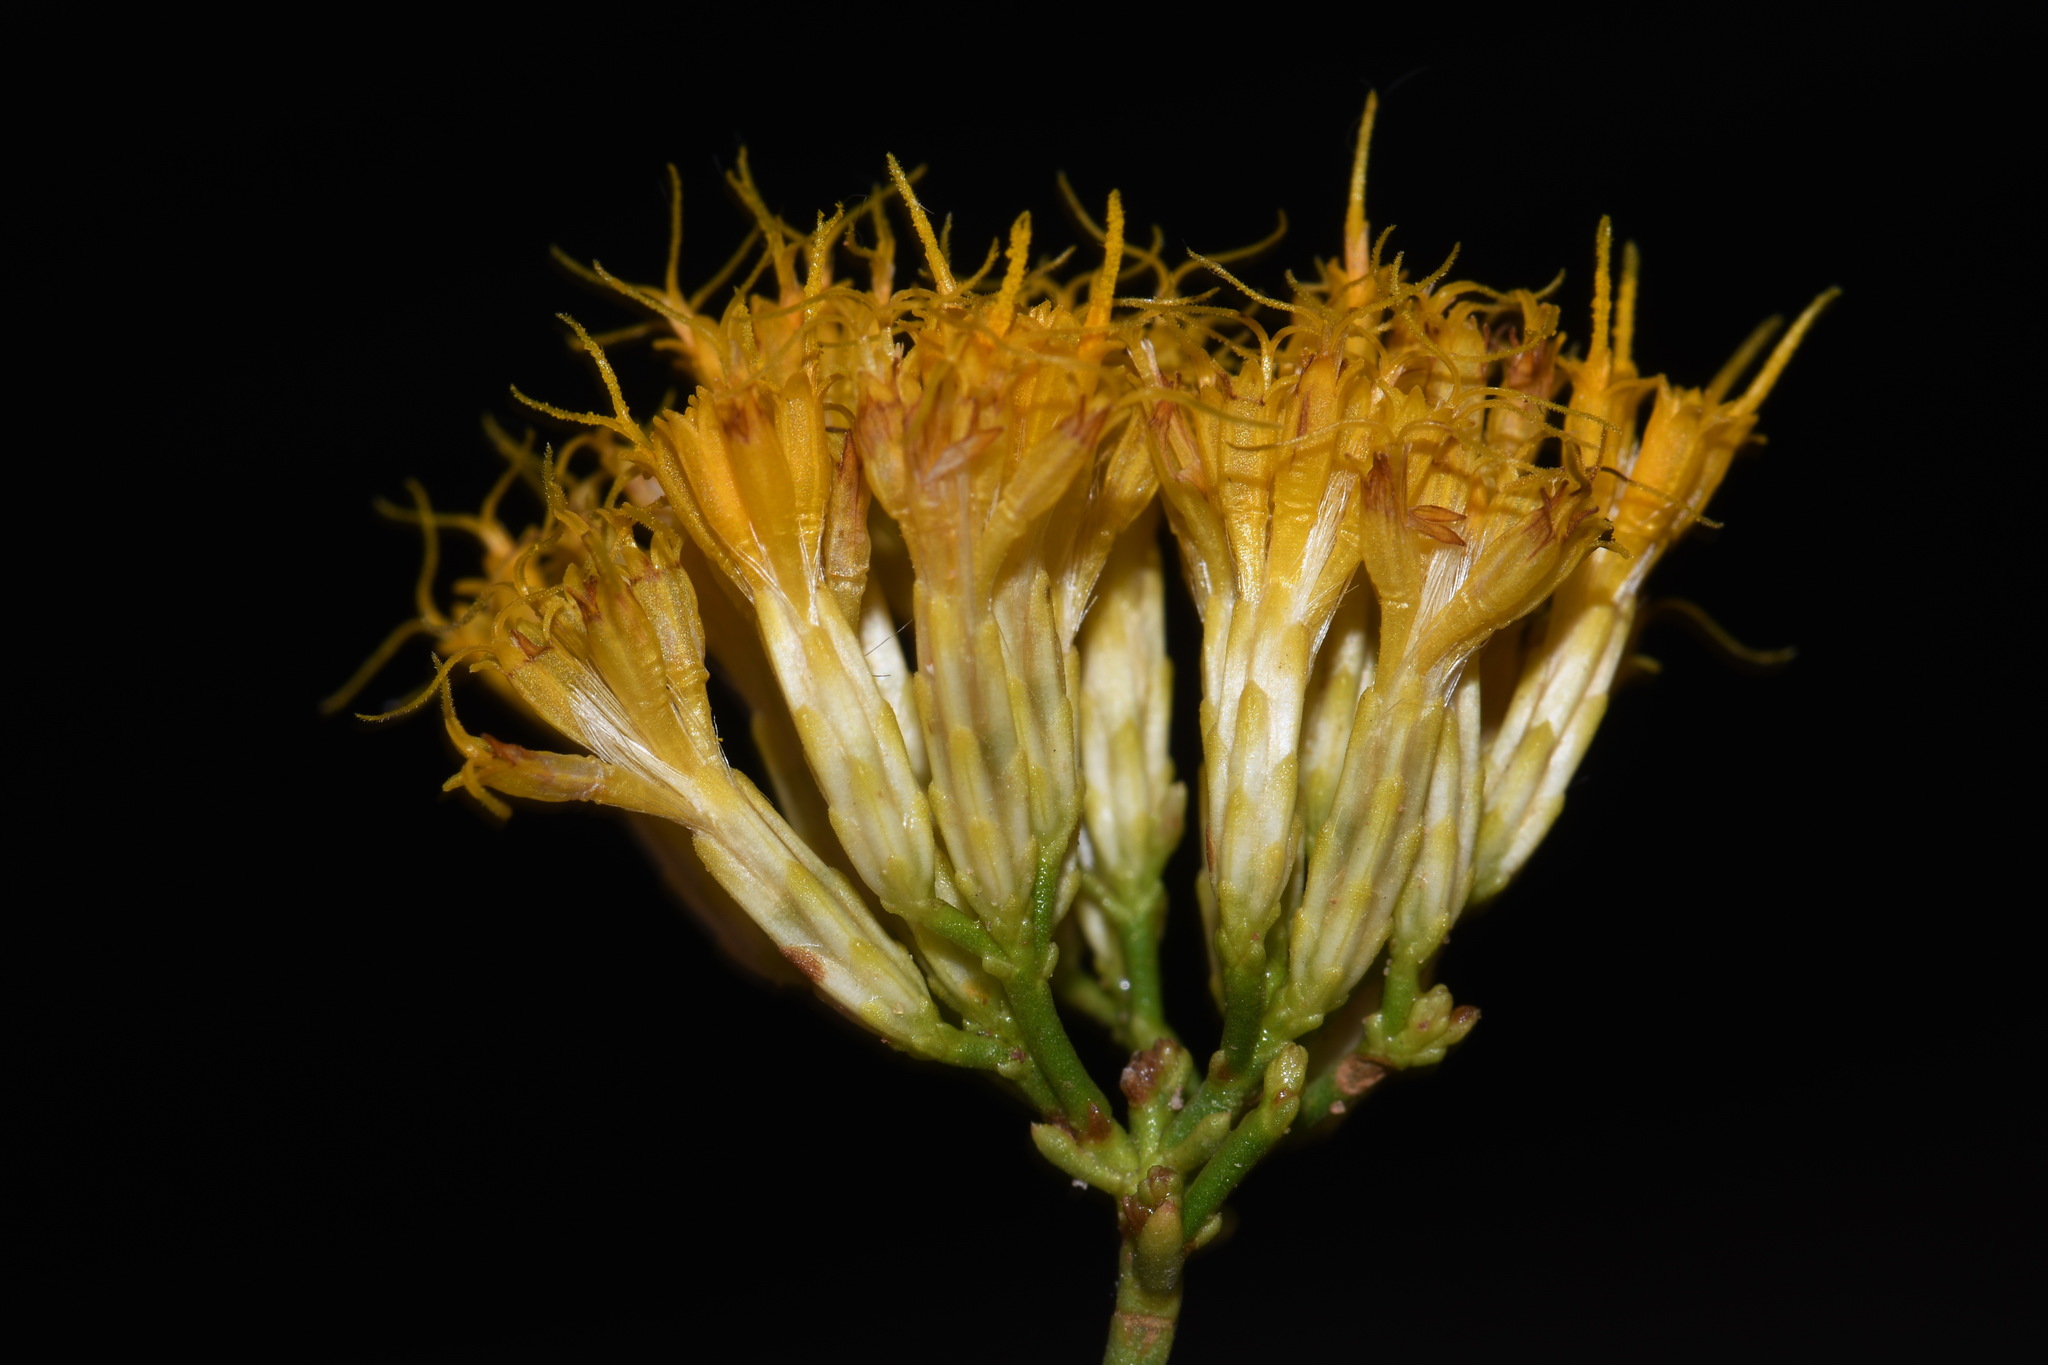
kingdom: Plantae
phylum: Tracheophyta
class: Magnoliopsida
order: Asterales
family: Asteraceae
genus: Ericameria
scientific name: Ericameria nauseosa
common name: Rubber rabbitbrush
